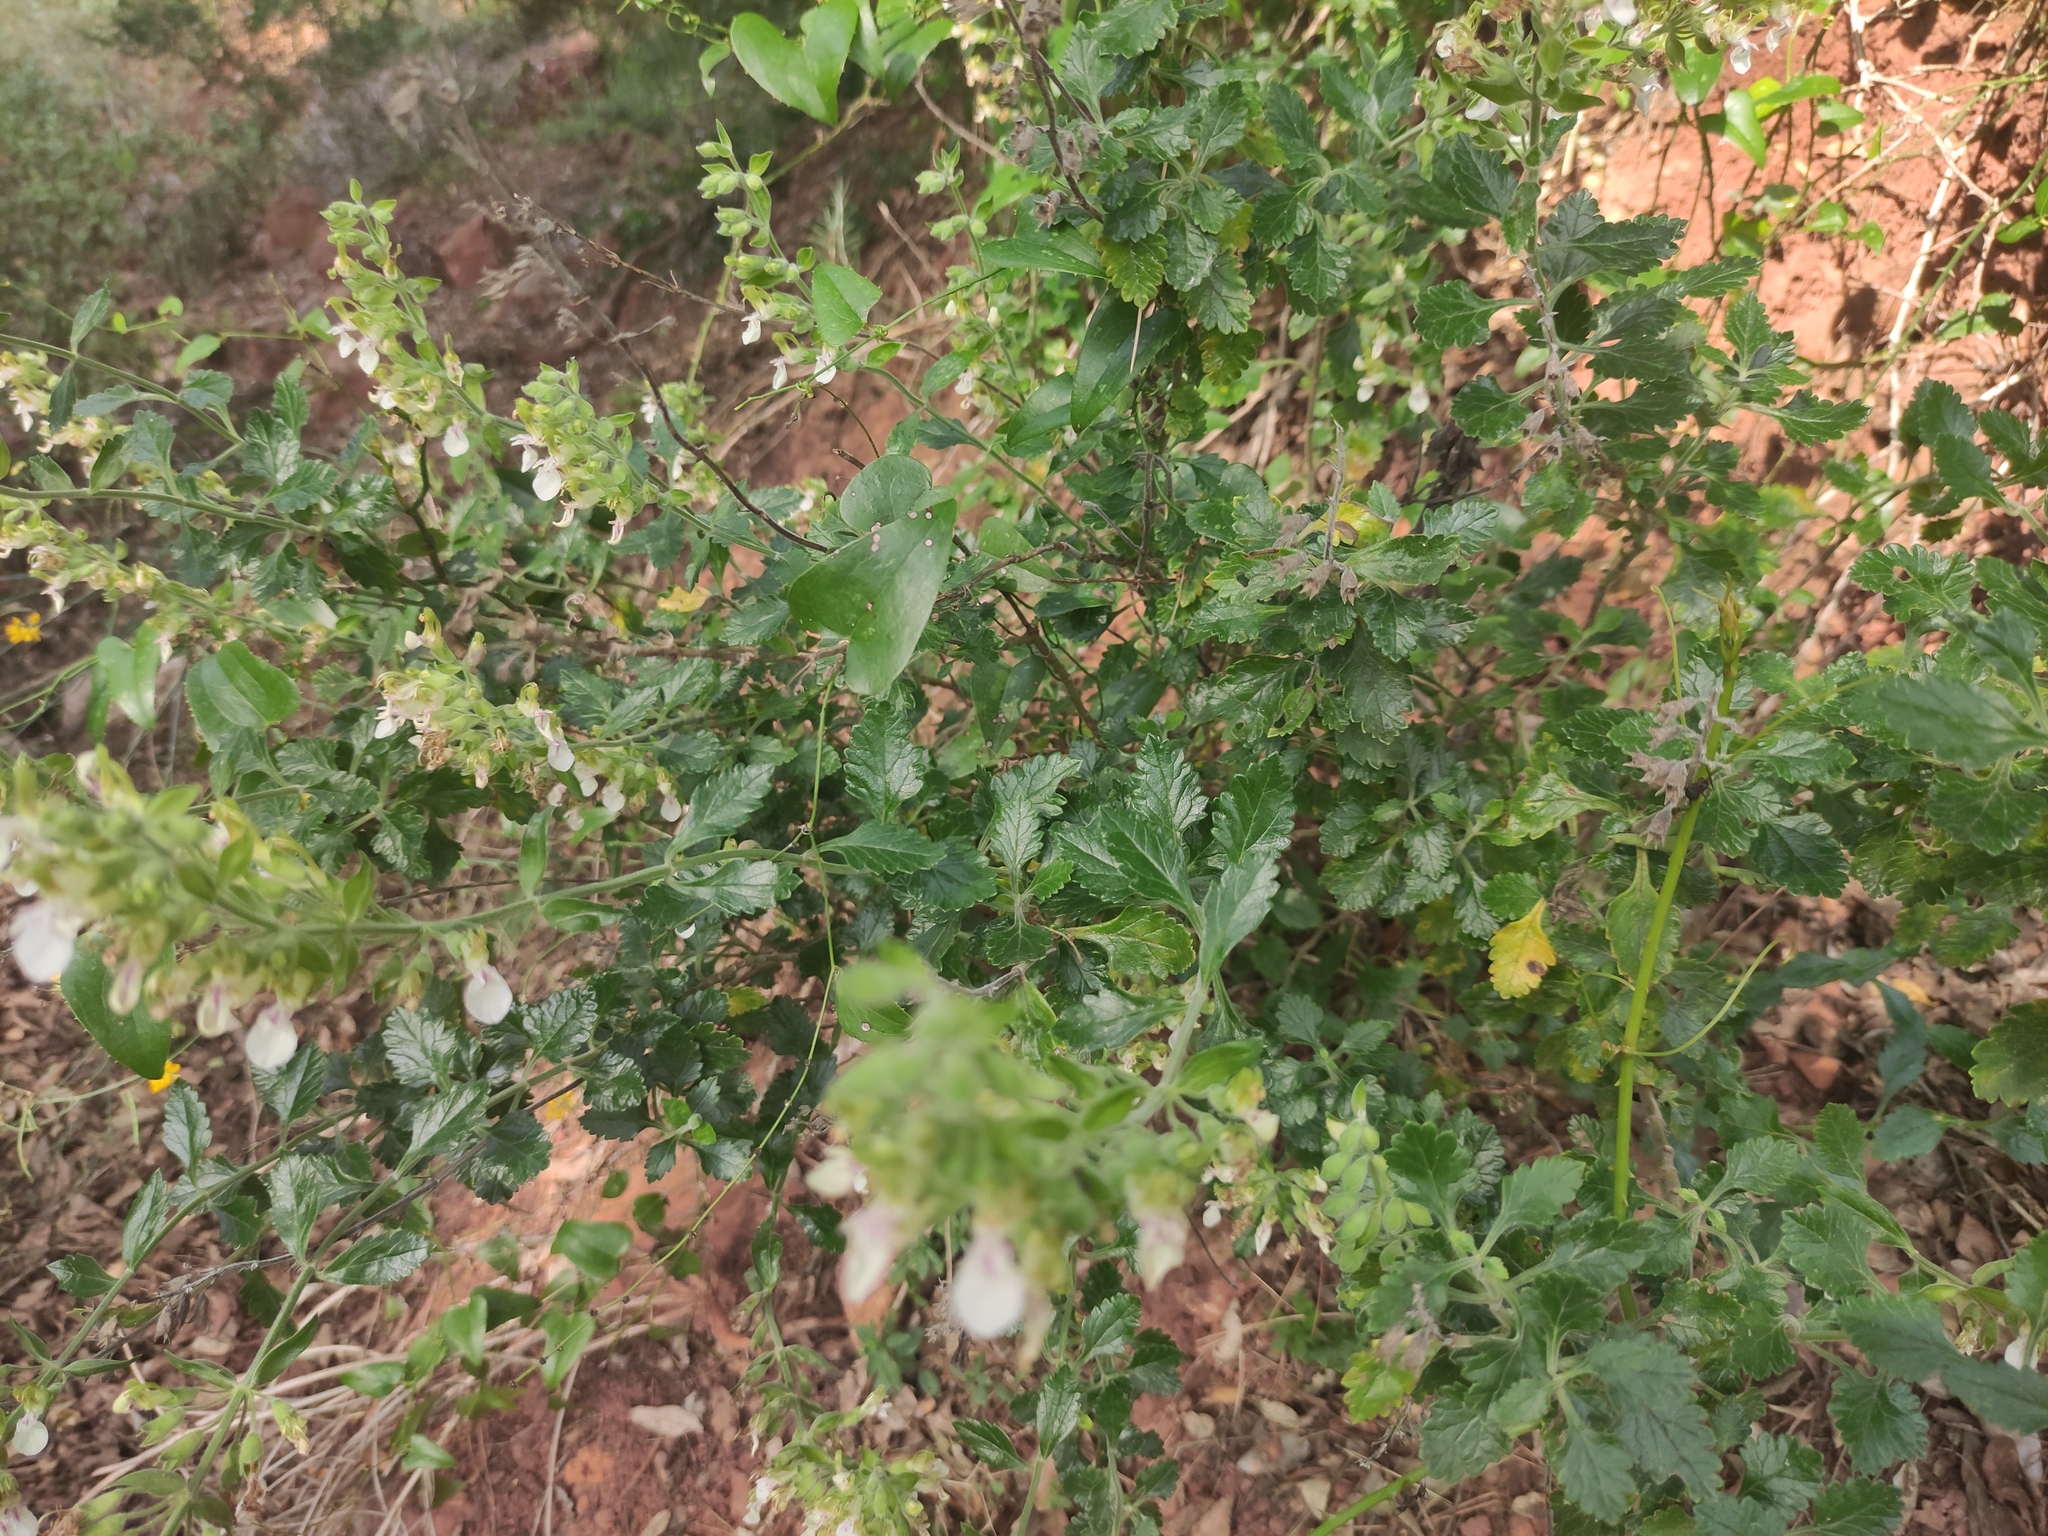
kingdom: Plantae
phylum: Tracheophyta
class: Magnoliopsida
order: Lamiales
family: Lamiaceae
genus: Teucrium
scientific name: Teucrium flavum
